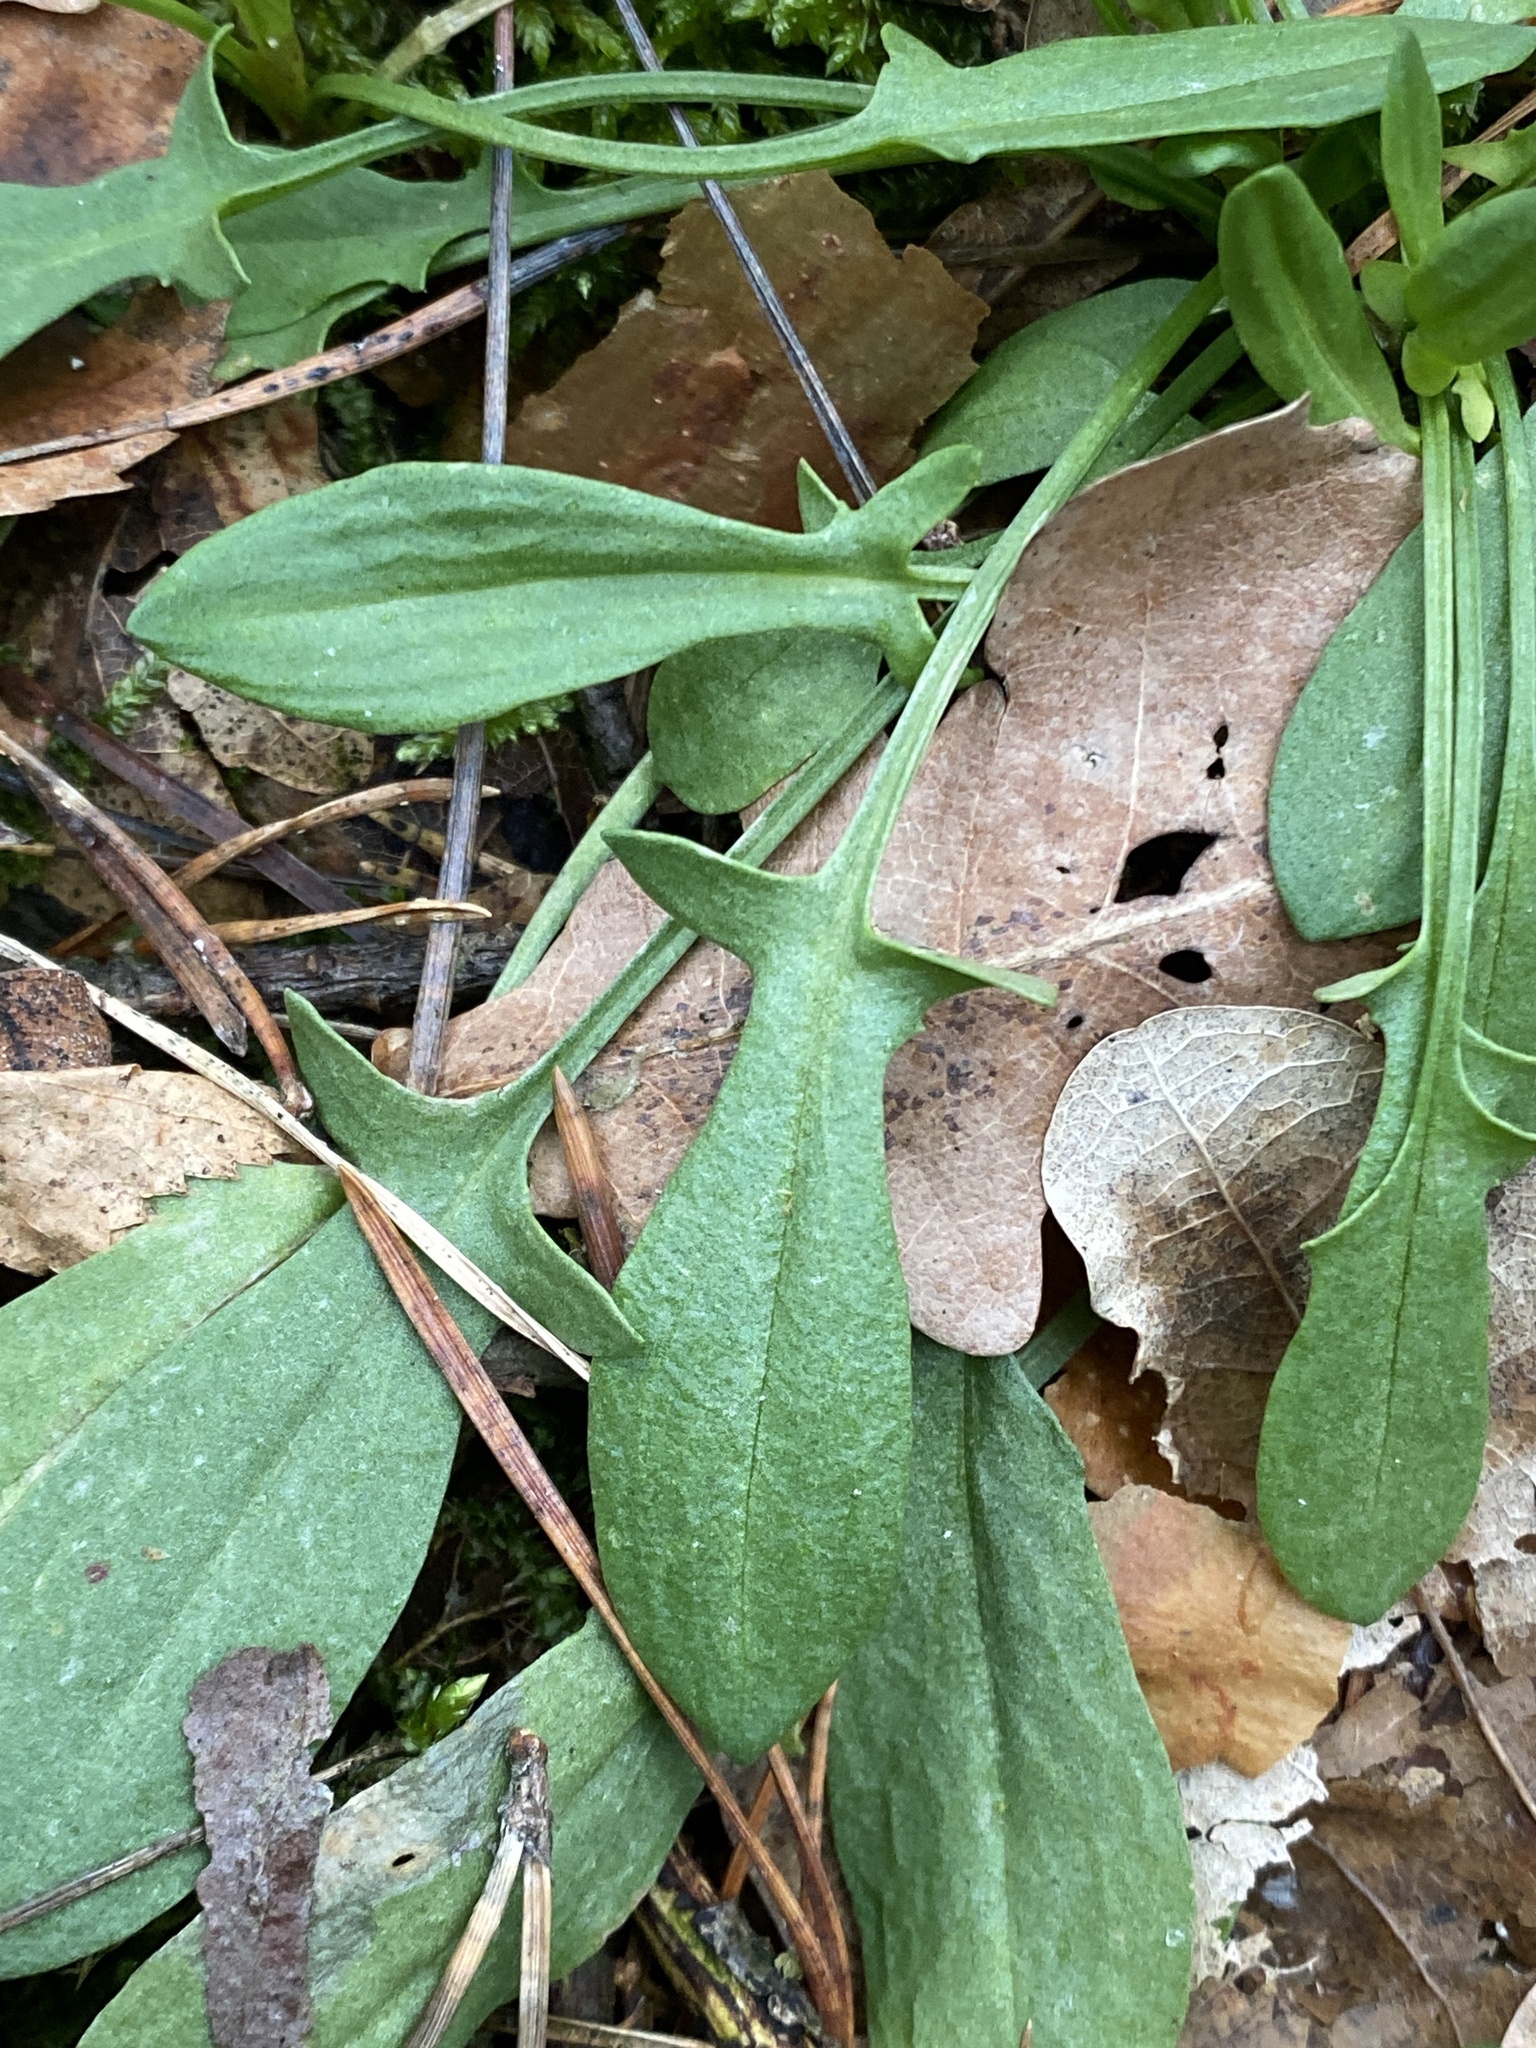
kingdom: Plantae
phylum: Tracheophyta
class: Magnoliopsida
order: Caryophyllales
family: Polygonaceae
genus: Rumex
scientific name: Rumex acetosella
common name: Common sheep sorrel
